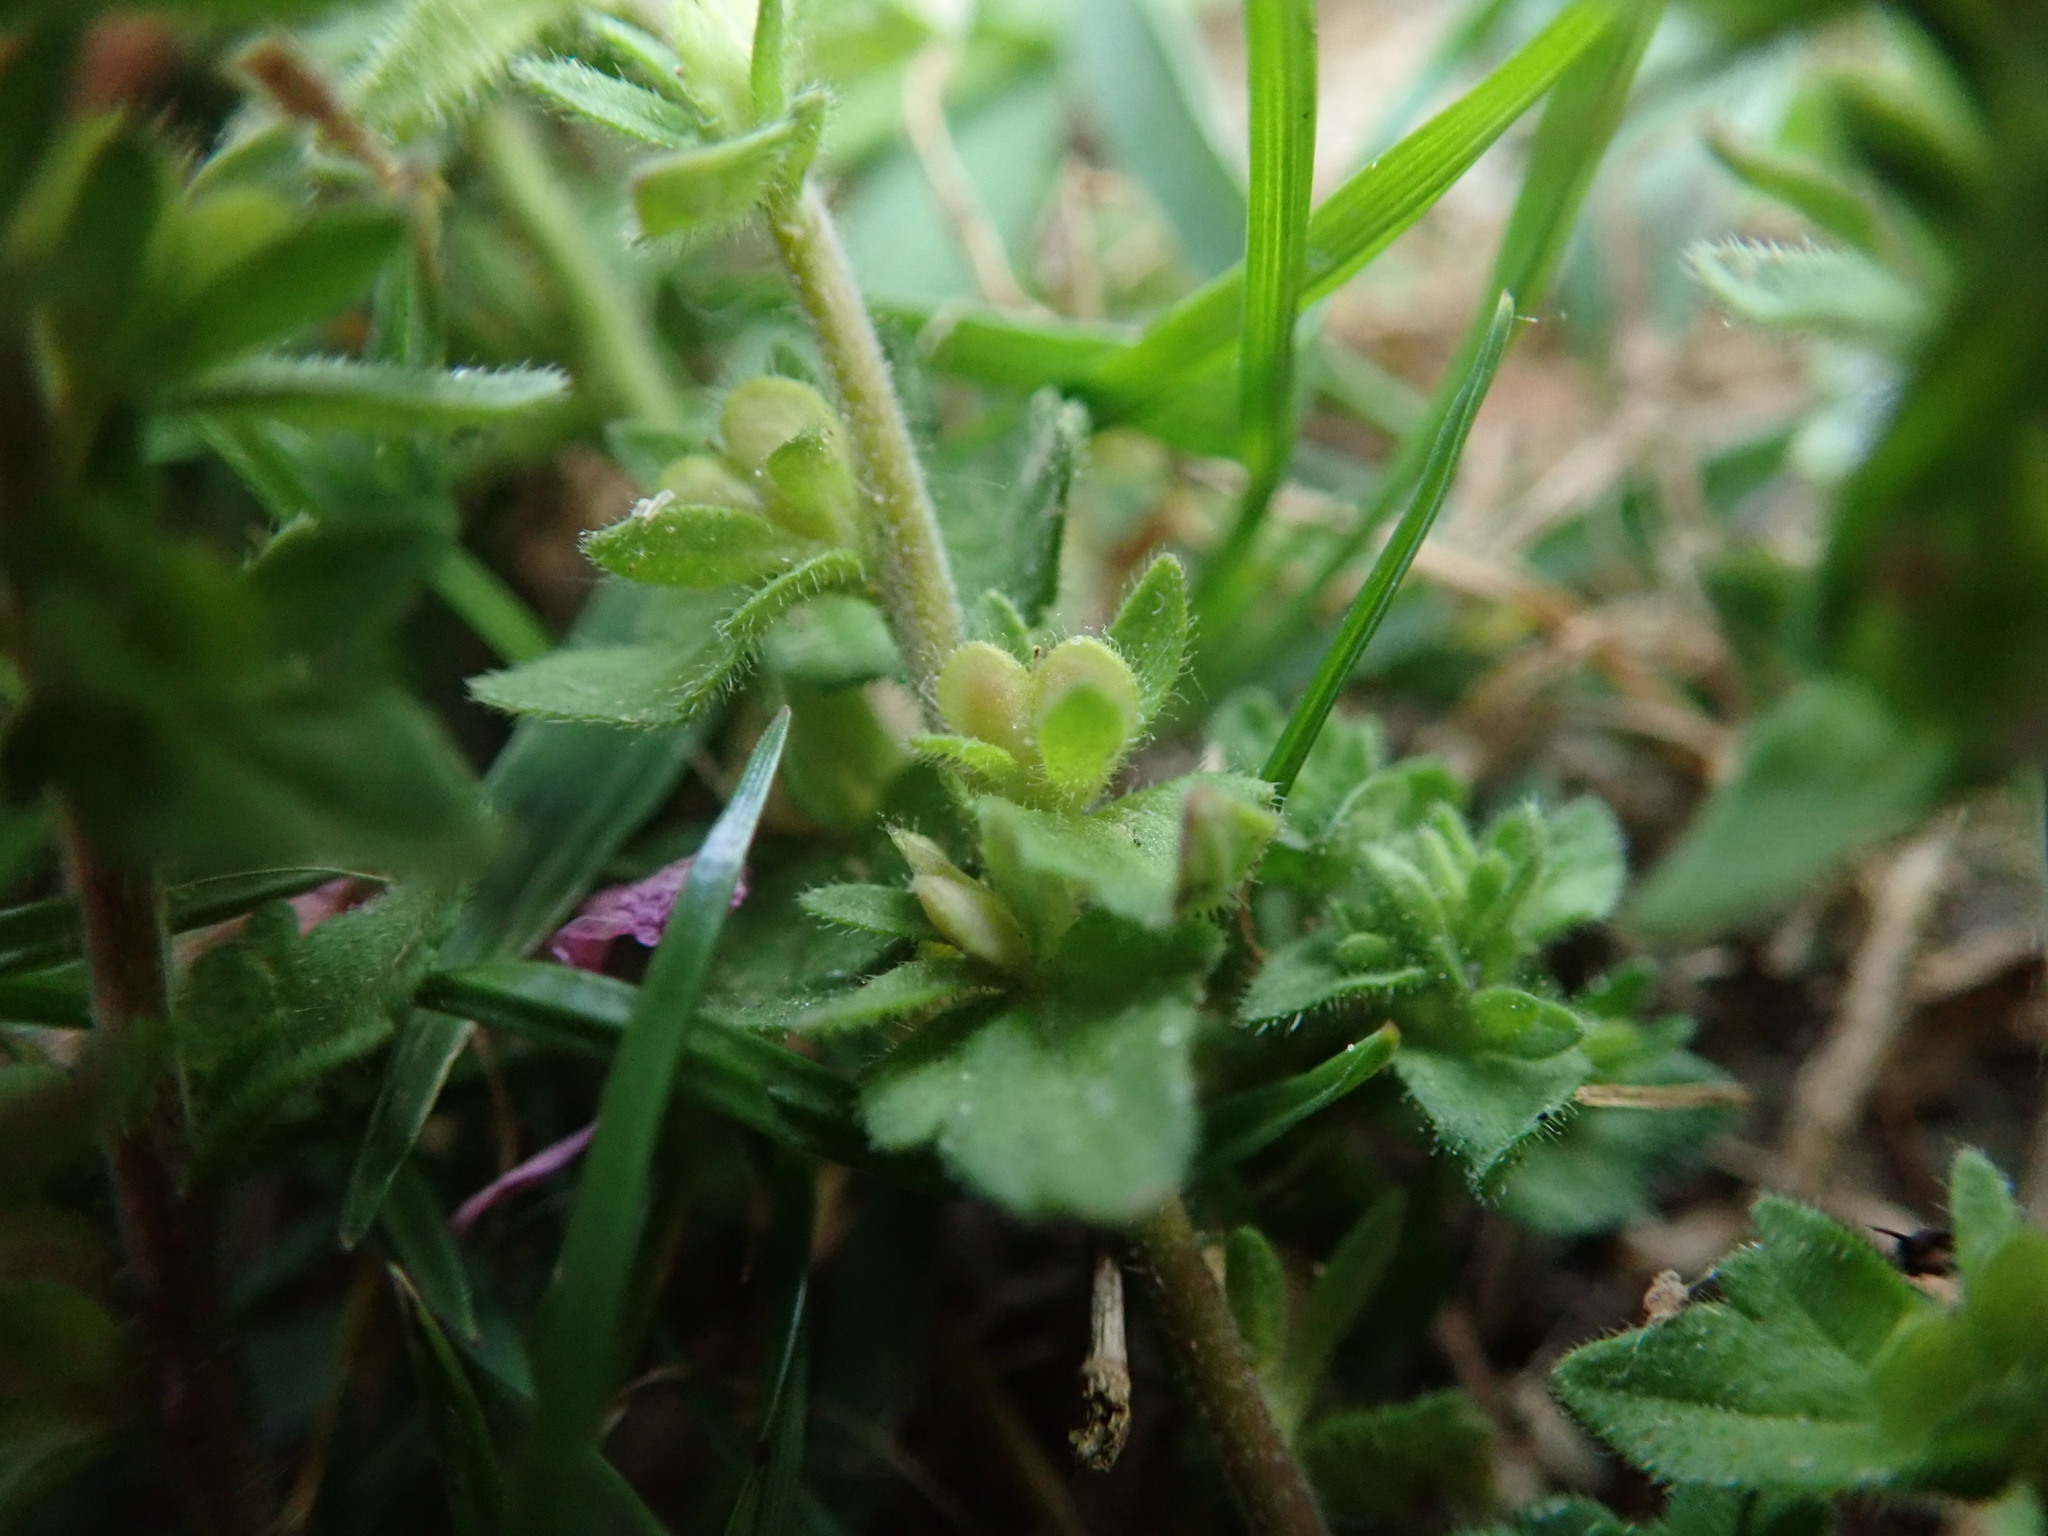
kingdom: Plantae
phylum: Tracheophyta
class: Magnoliopsida
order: Lamiales
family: Plantaginaceae
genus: Veronica
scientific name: Veronica arvensis
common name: Corn speedwell
